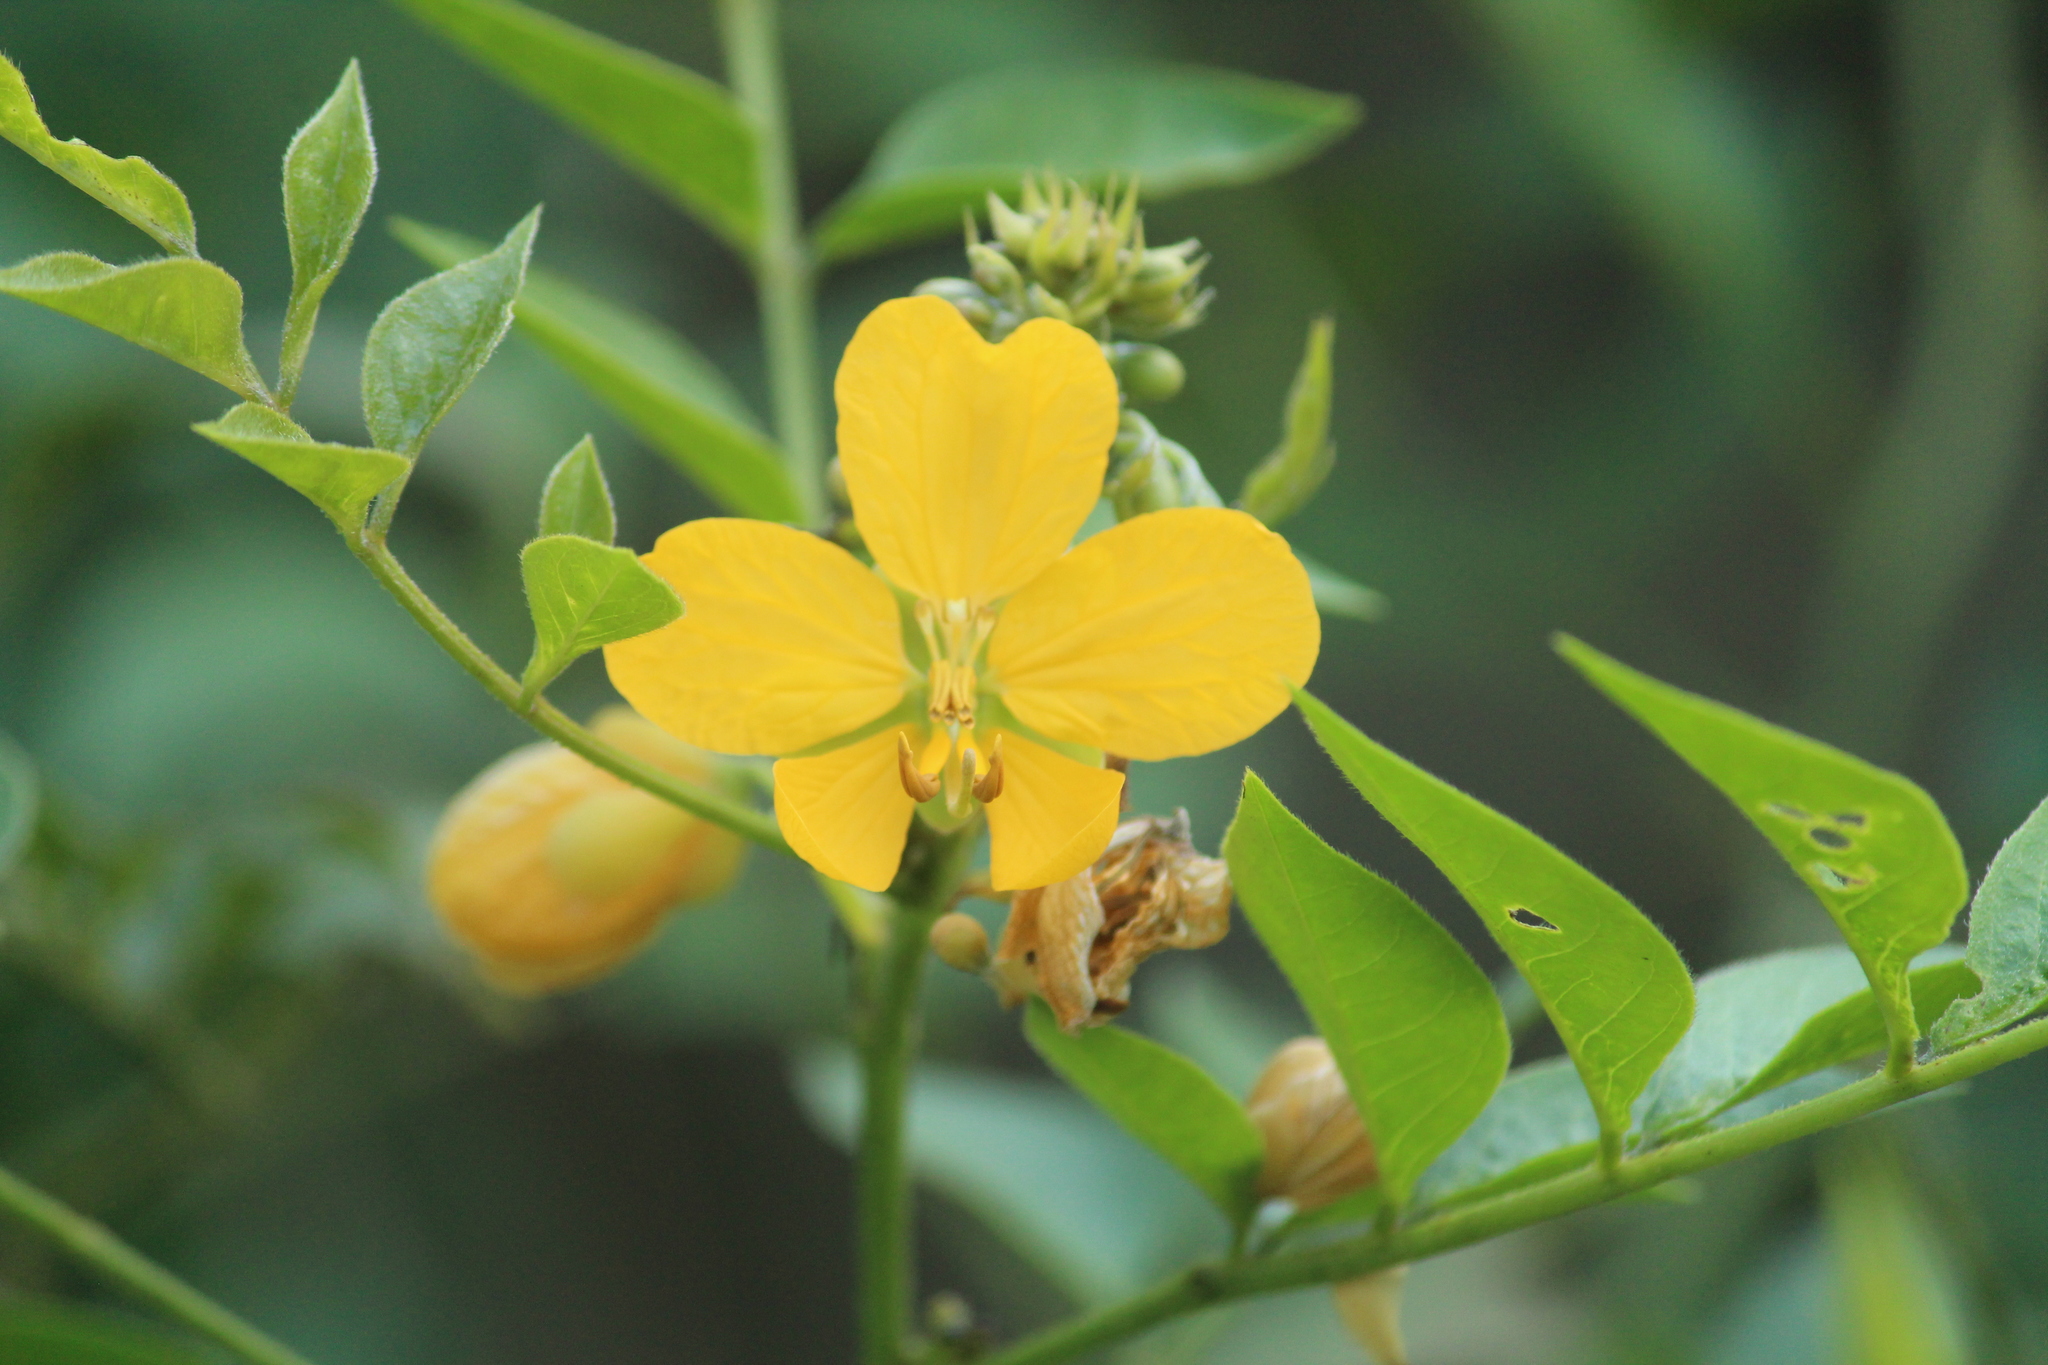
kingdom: Plantae
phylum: Tracheophyta
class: Magnoliopsida
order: Fabales
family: Fabaceae
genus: Senna
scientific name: Senna hirsuta
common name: Woolly senna
